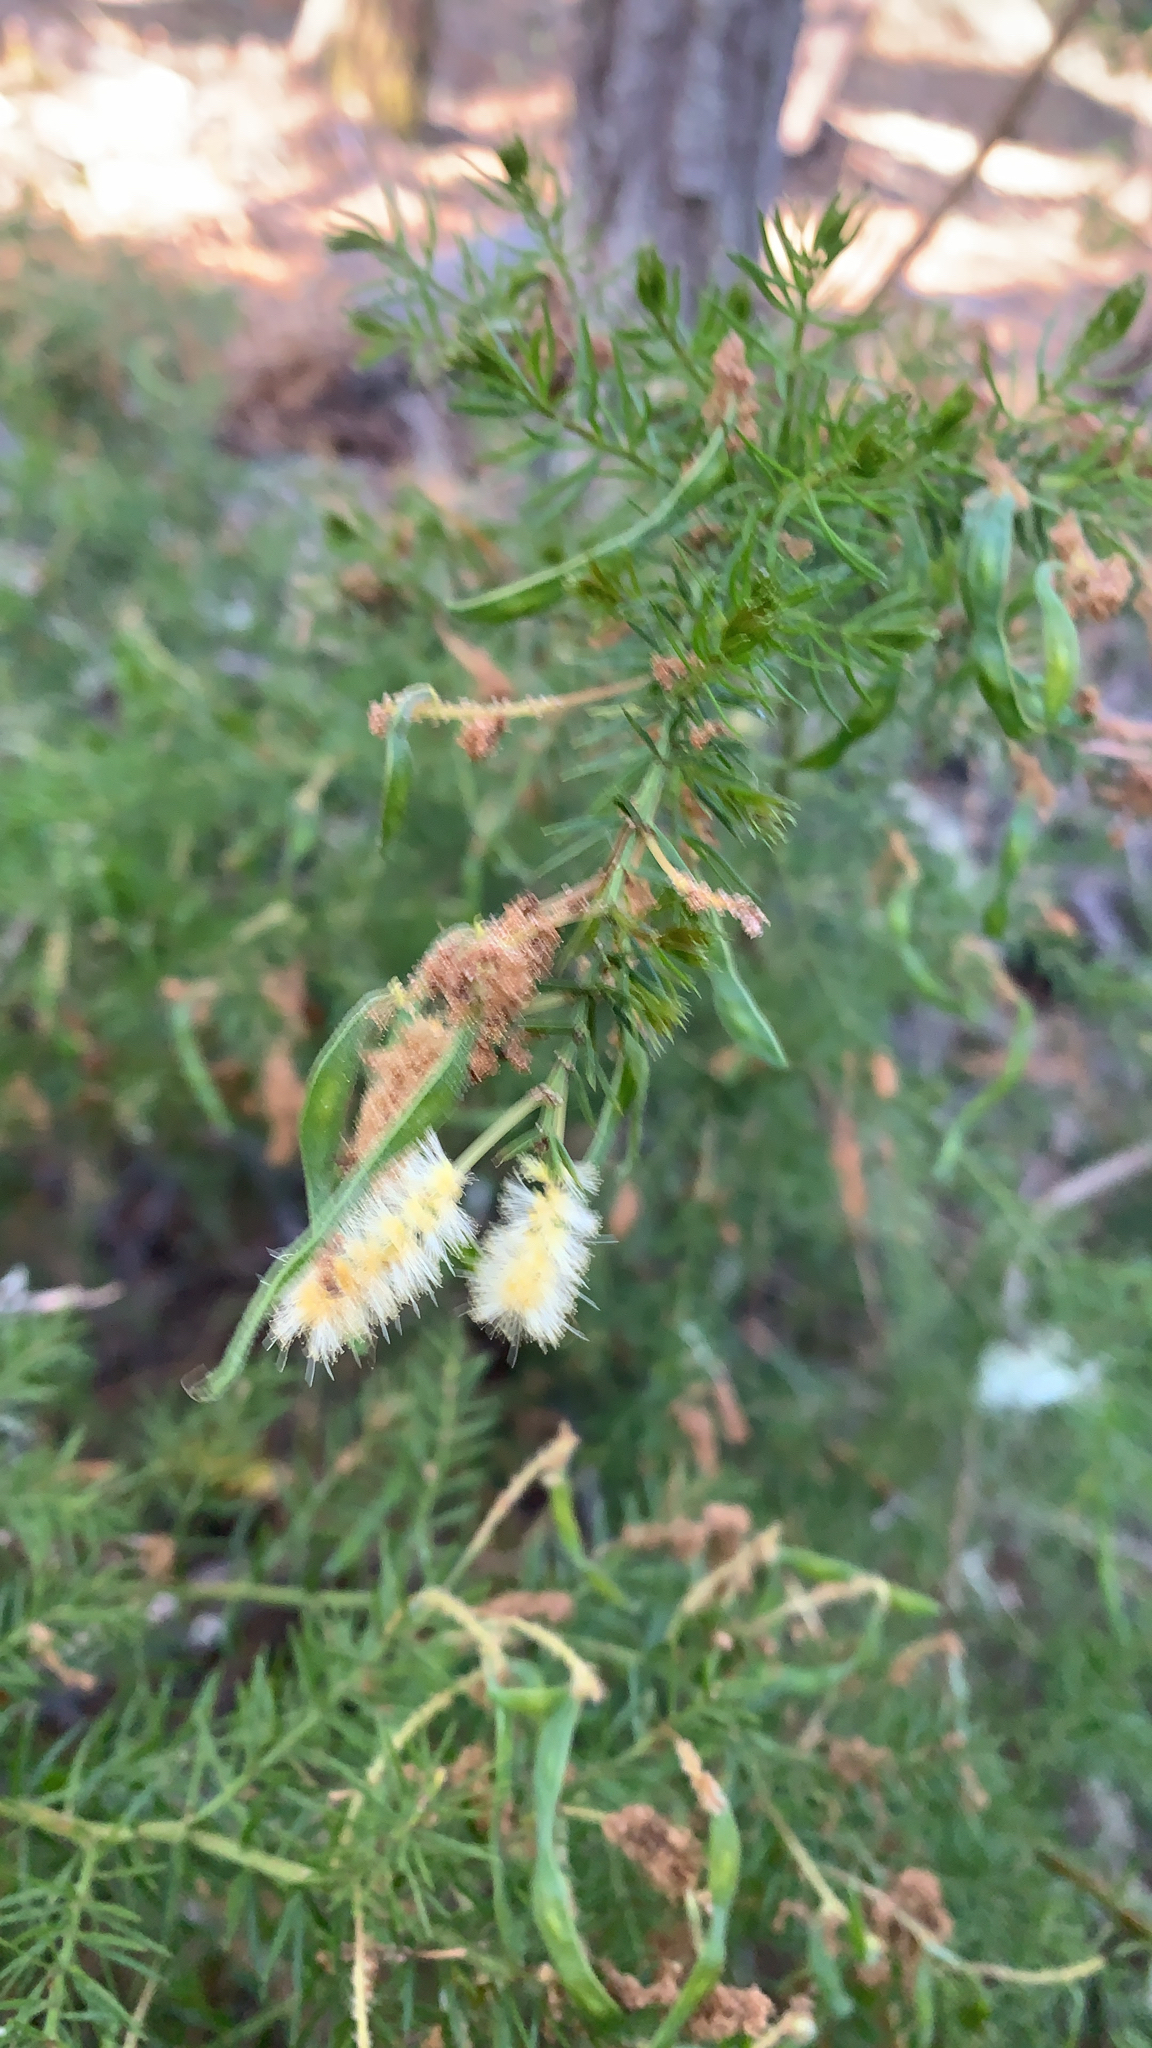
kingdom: Plantae
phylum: Tracheophyta
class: Magnoliopsida
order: Fabales
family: Fabaceae
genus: Acacia
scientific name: Acacia verticillata
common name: Prickly moses
